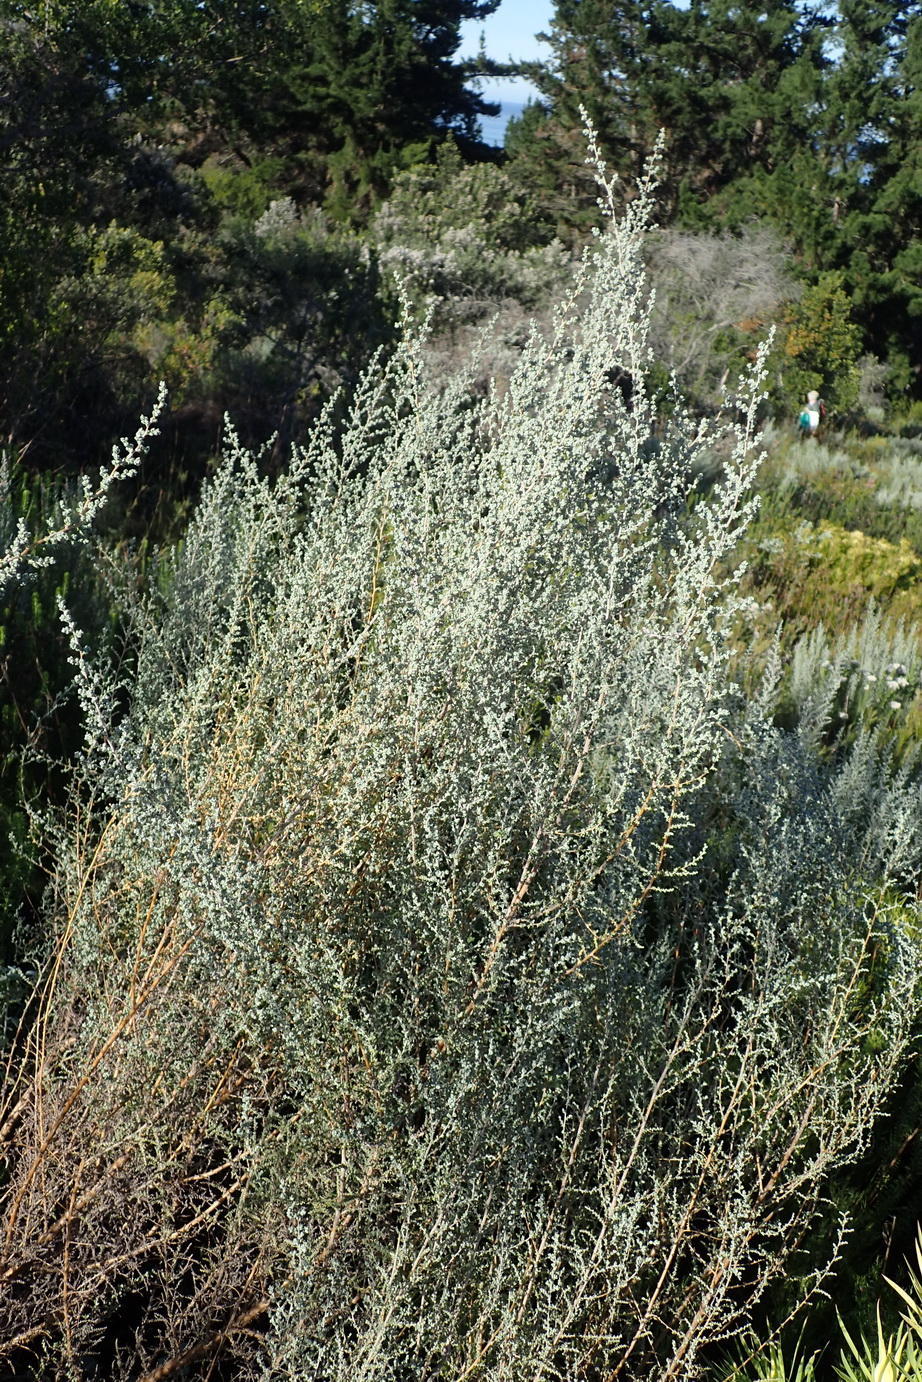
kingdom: Plantae
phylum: Tracheophyta
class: Magnoliopsida
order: Asterales
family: Asteraceae
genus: Eriocephalus
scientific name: Eriocephalus racemosus
